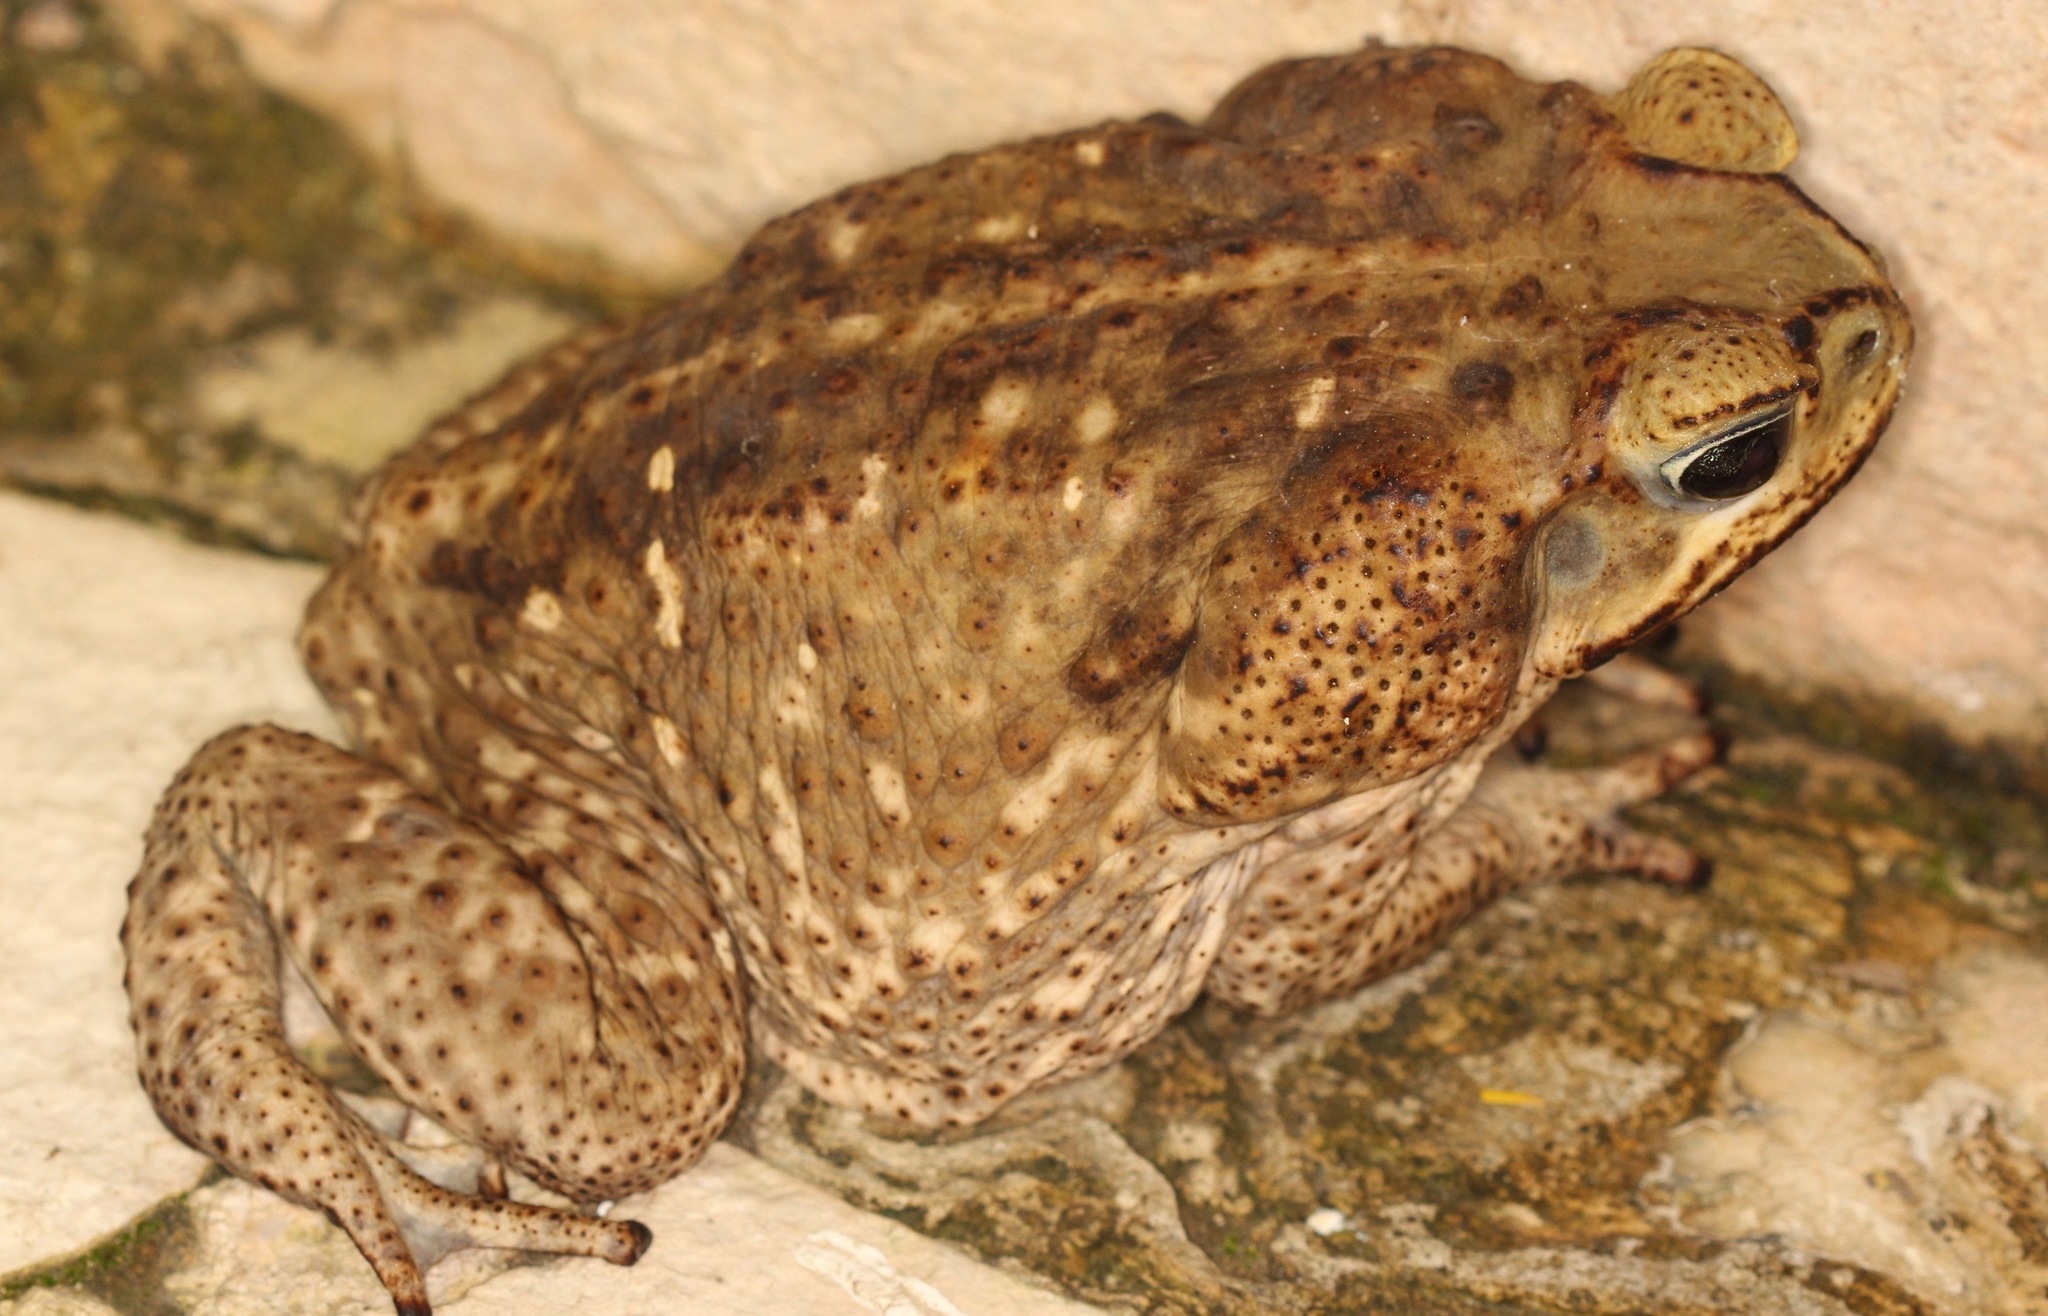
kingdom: Animalia
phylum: Chordata
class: Amphibia
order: Anura
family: Bufonidae
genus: Rhinella
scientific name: Rhinella horribilis
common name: Mesoamerican cane toad
